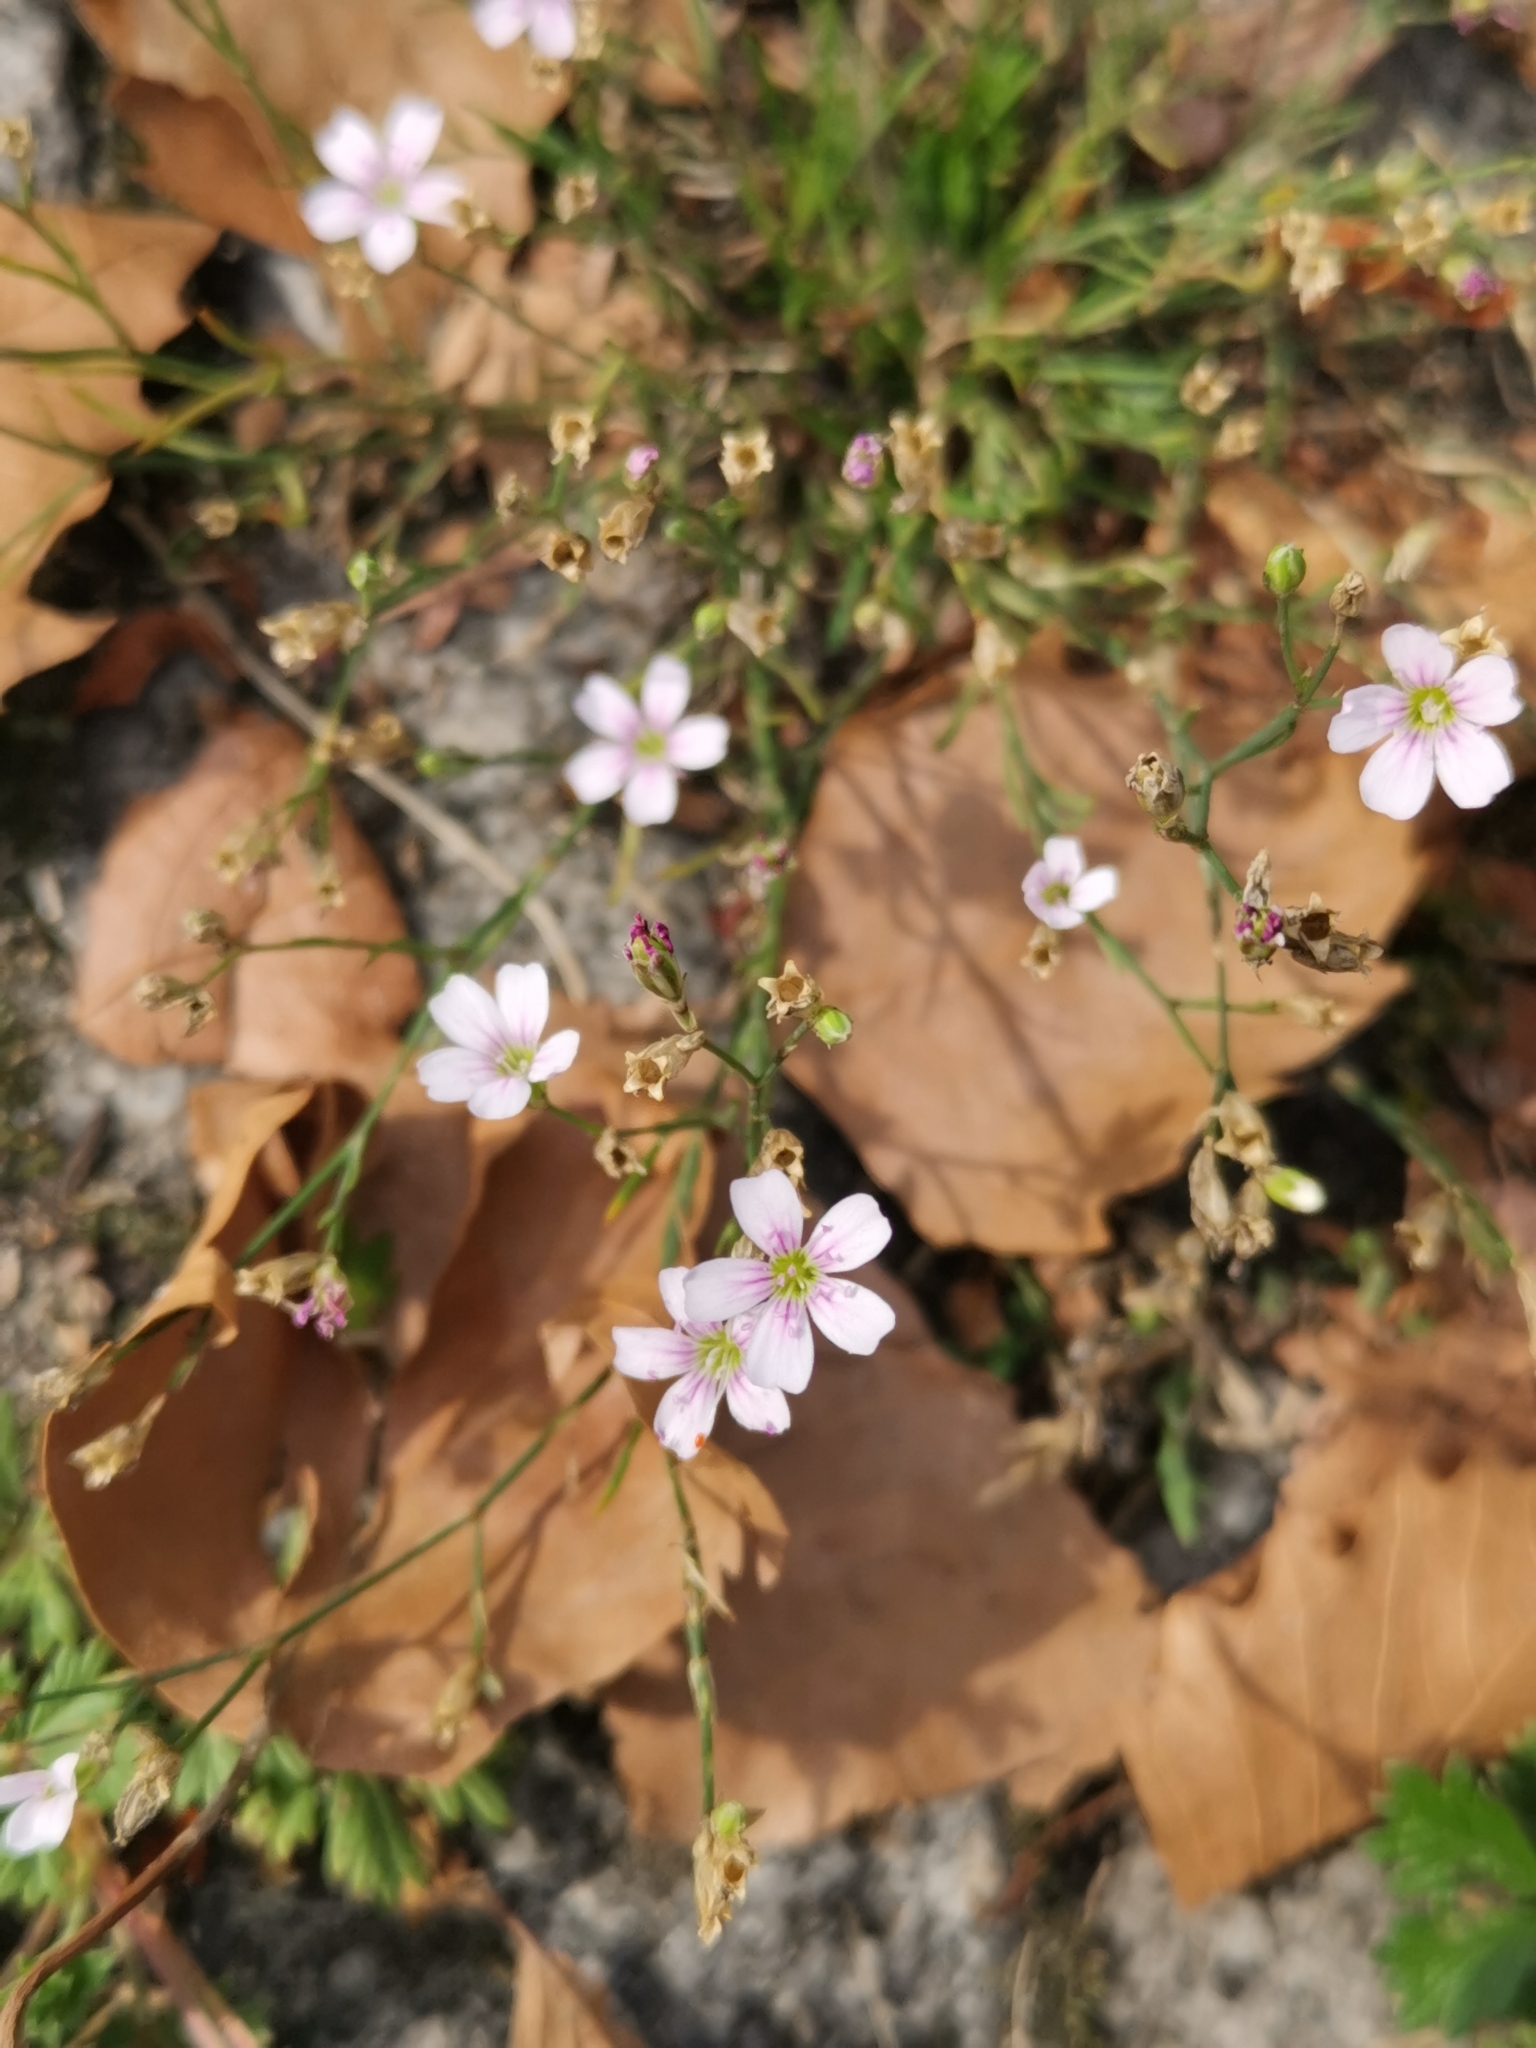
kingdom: Plantae
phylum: Tracheophyta
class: Magnoliopsida
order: Caryophyllales
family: Caryophyllaceae
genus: Petrorhagia
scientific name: Petrorhagia saxifraga
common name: Tunicflower
